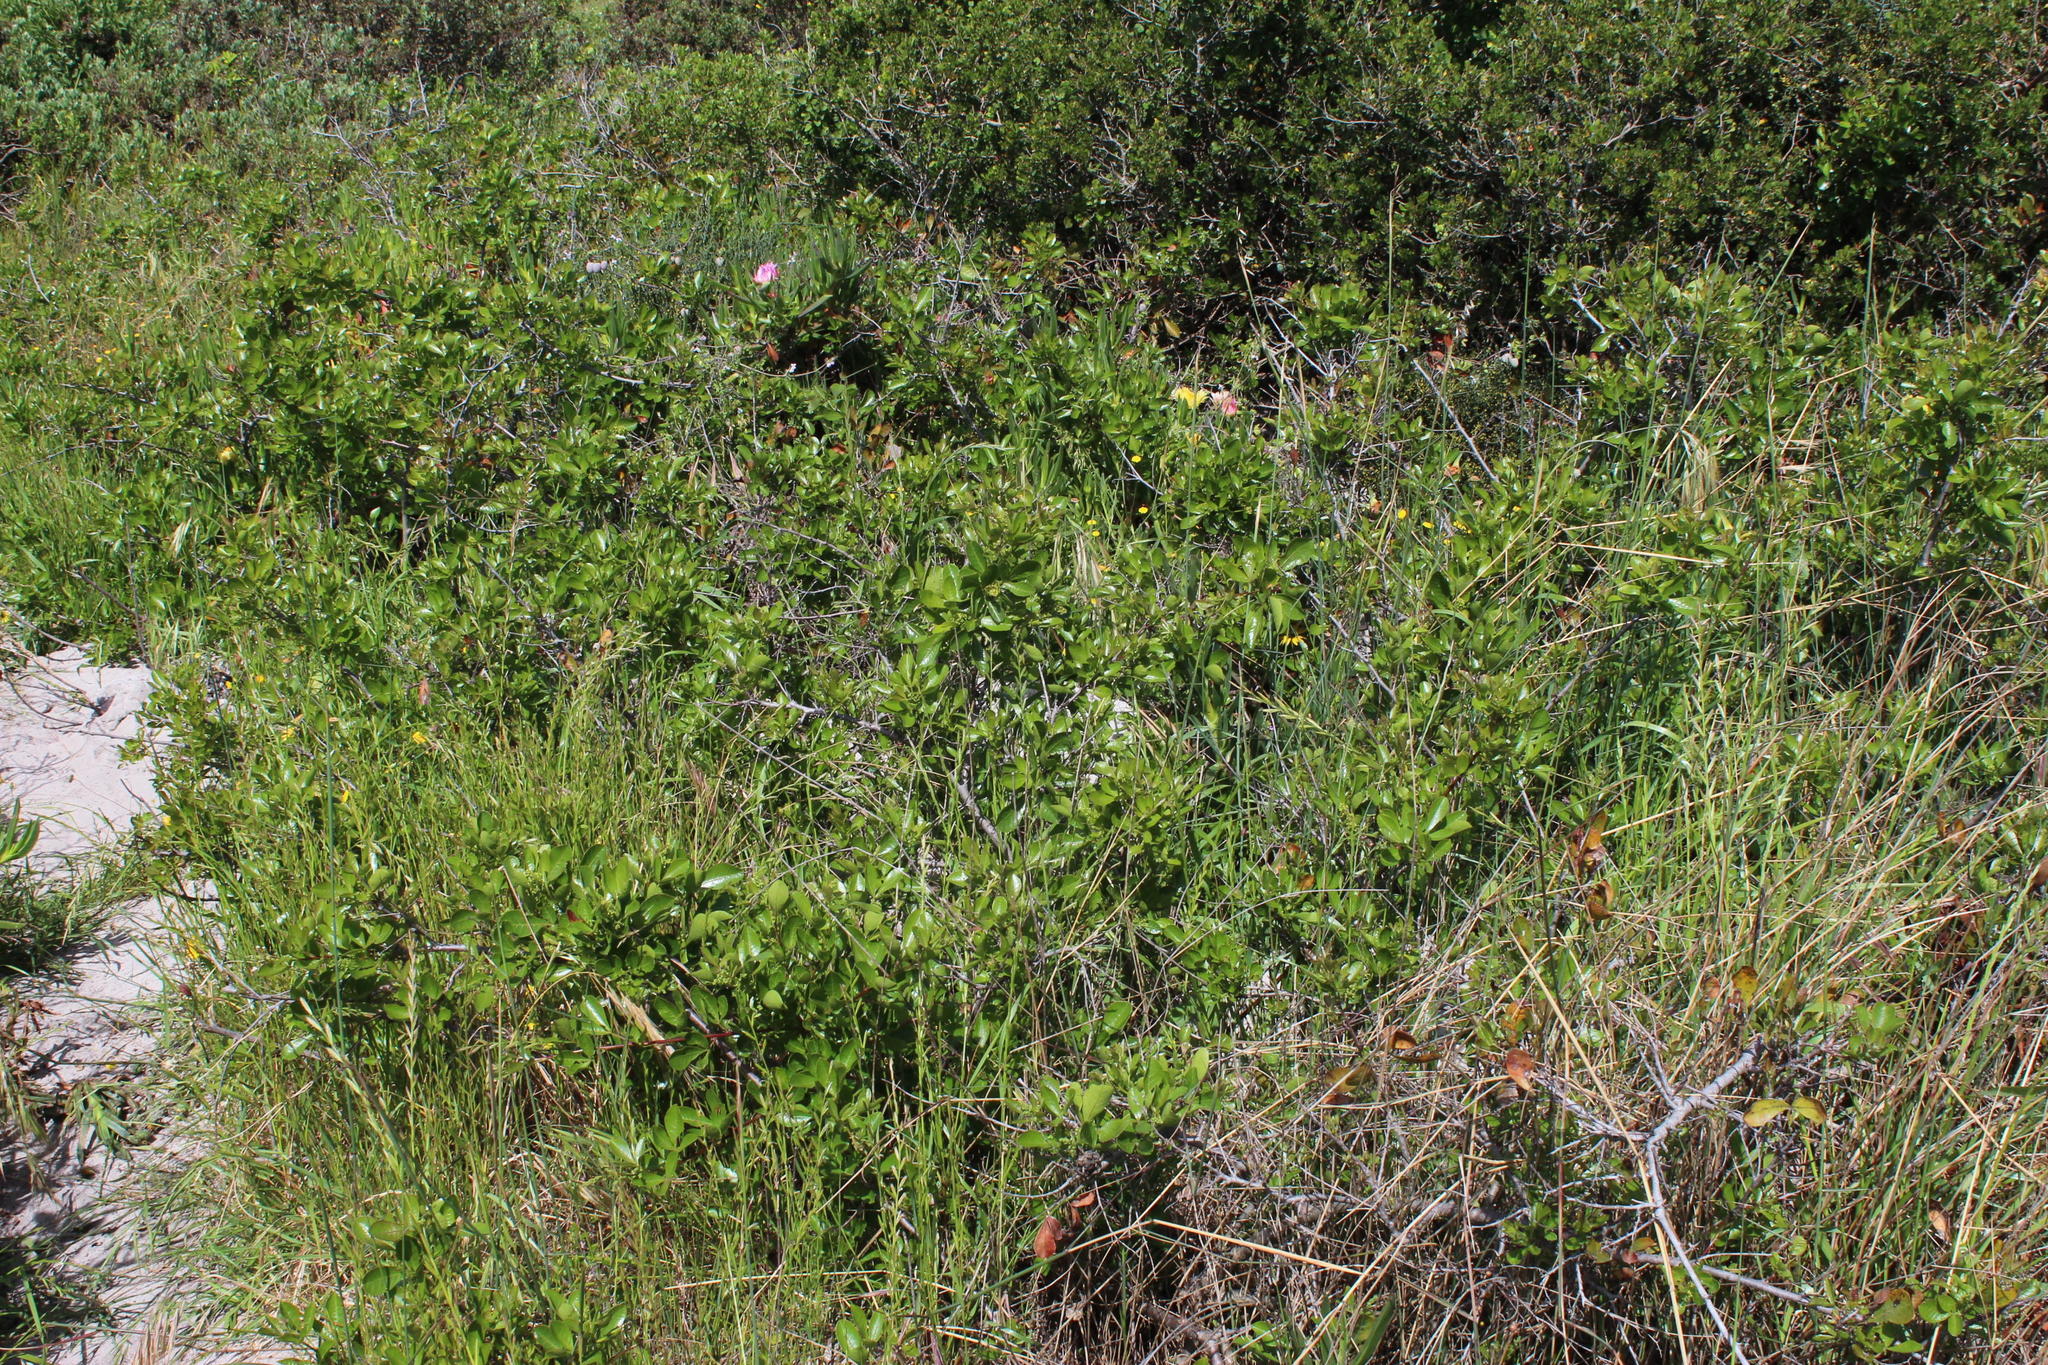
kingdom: Plantae
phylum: Tracheophyta
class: Magnoliopsida
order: Sapindales
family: Anacardiaceae
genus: Searsia
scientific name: Searsia laevigata
